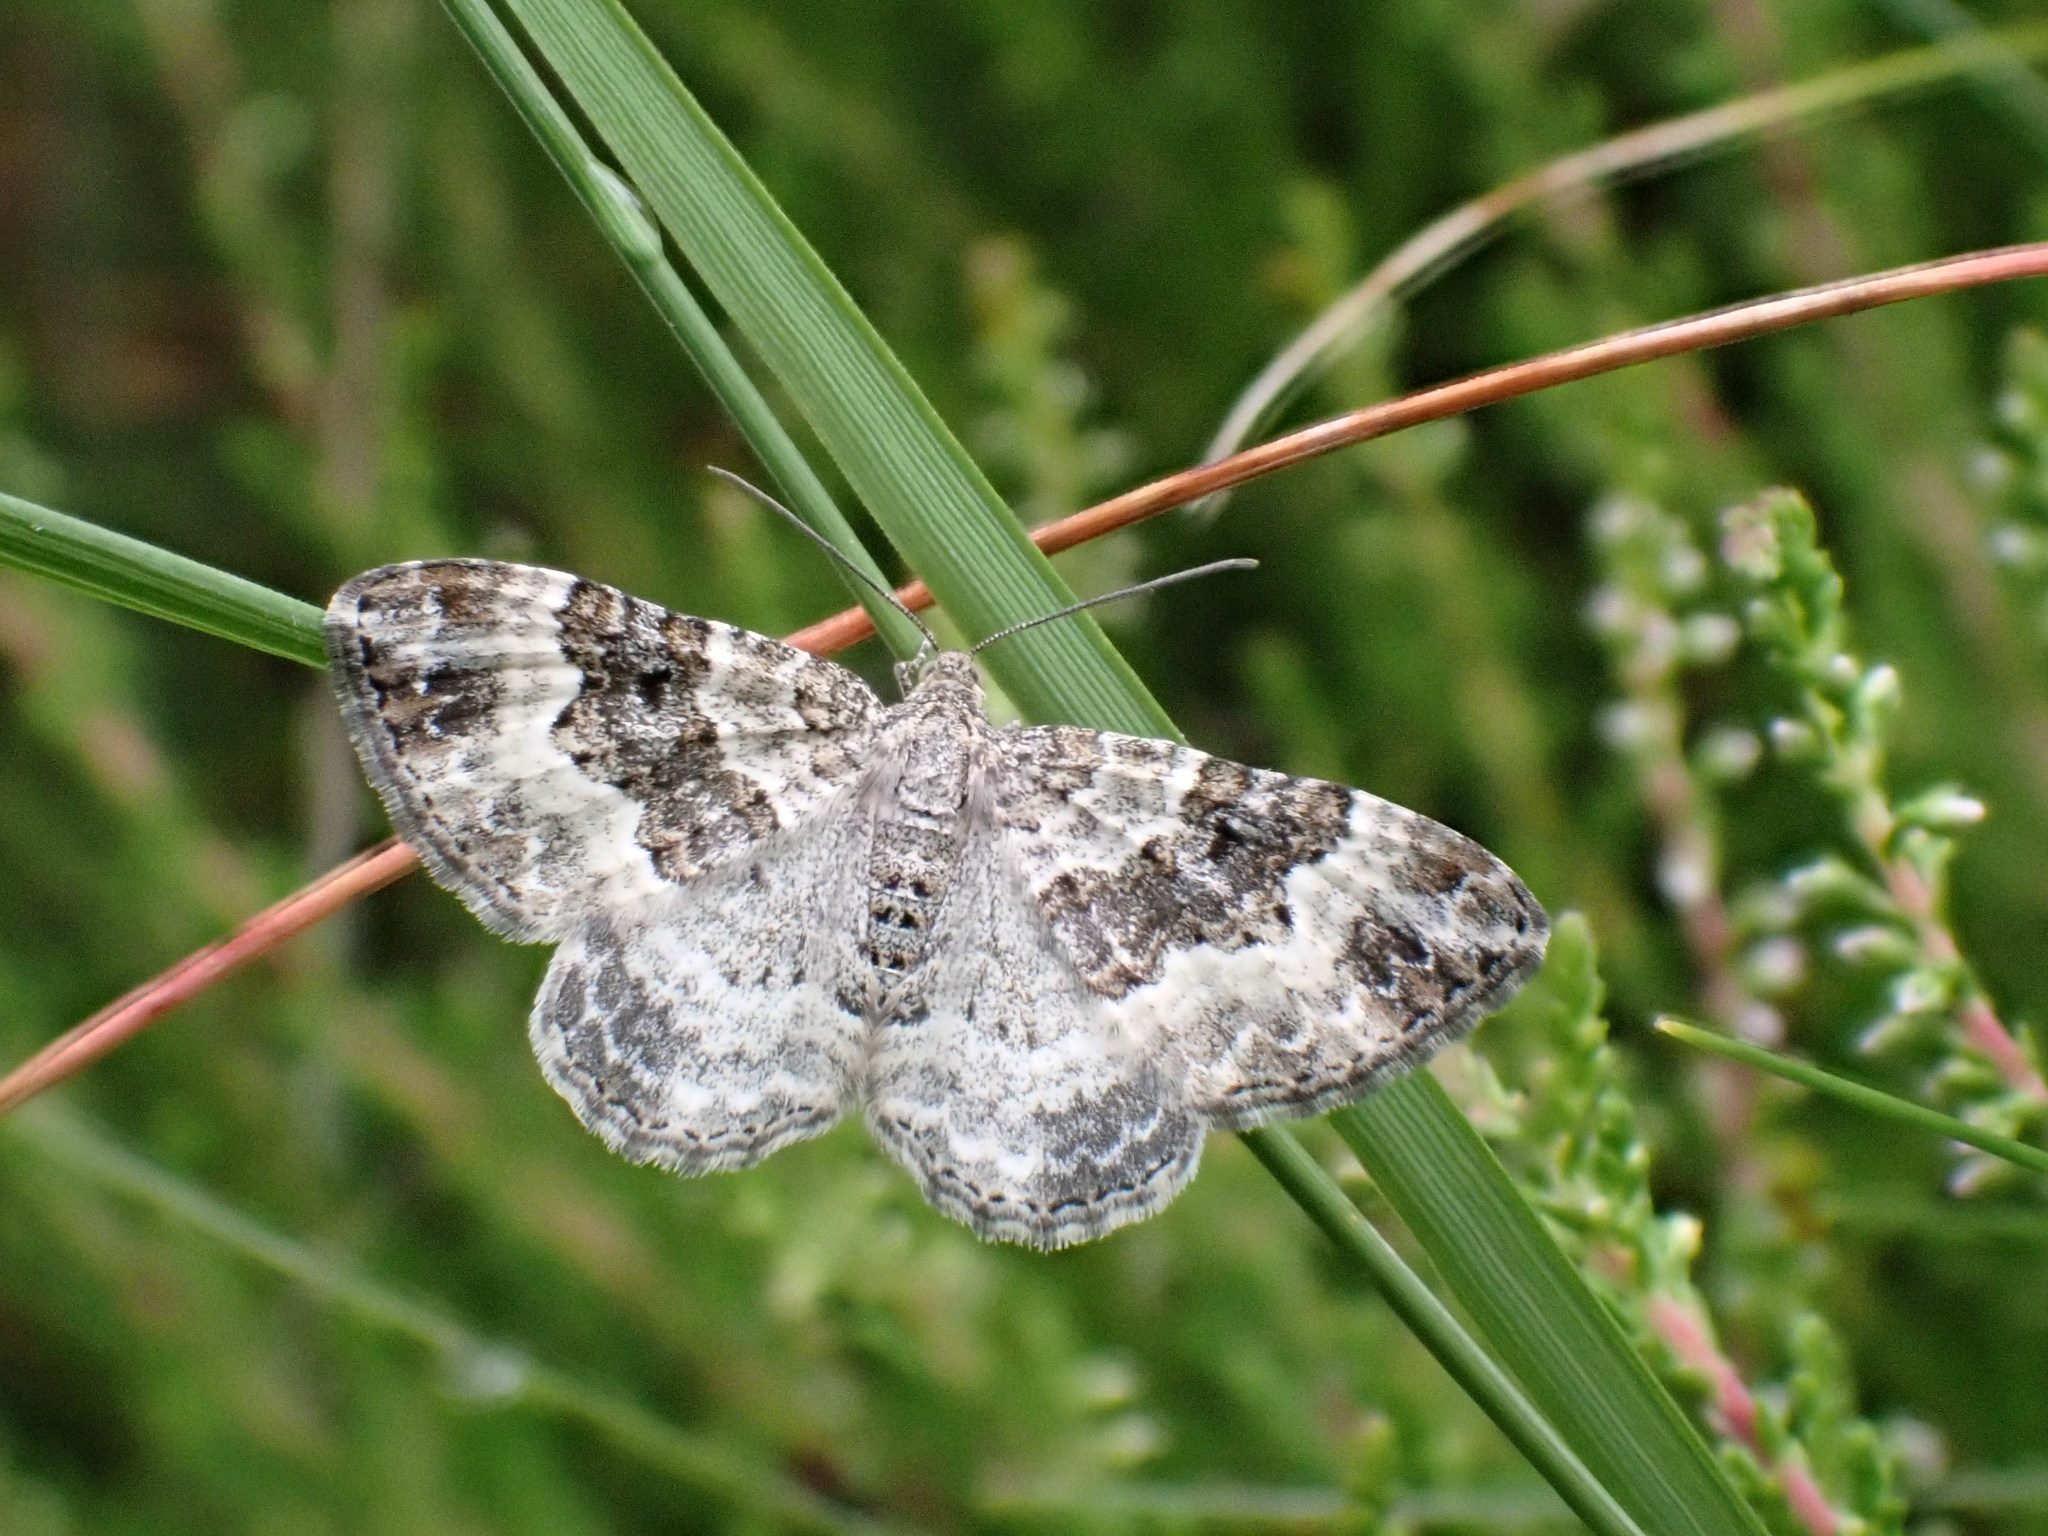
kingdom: Animalia
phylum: Arthropoda
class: Insecta
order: Lepidoptera
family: Geometridae
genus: Epirrhoe
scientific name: Epirrhoe alternata
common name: Common carpet
